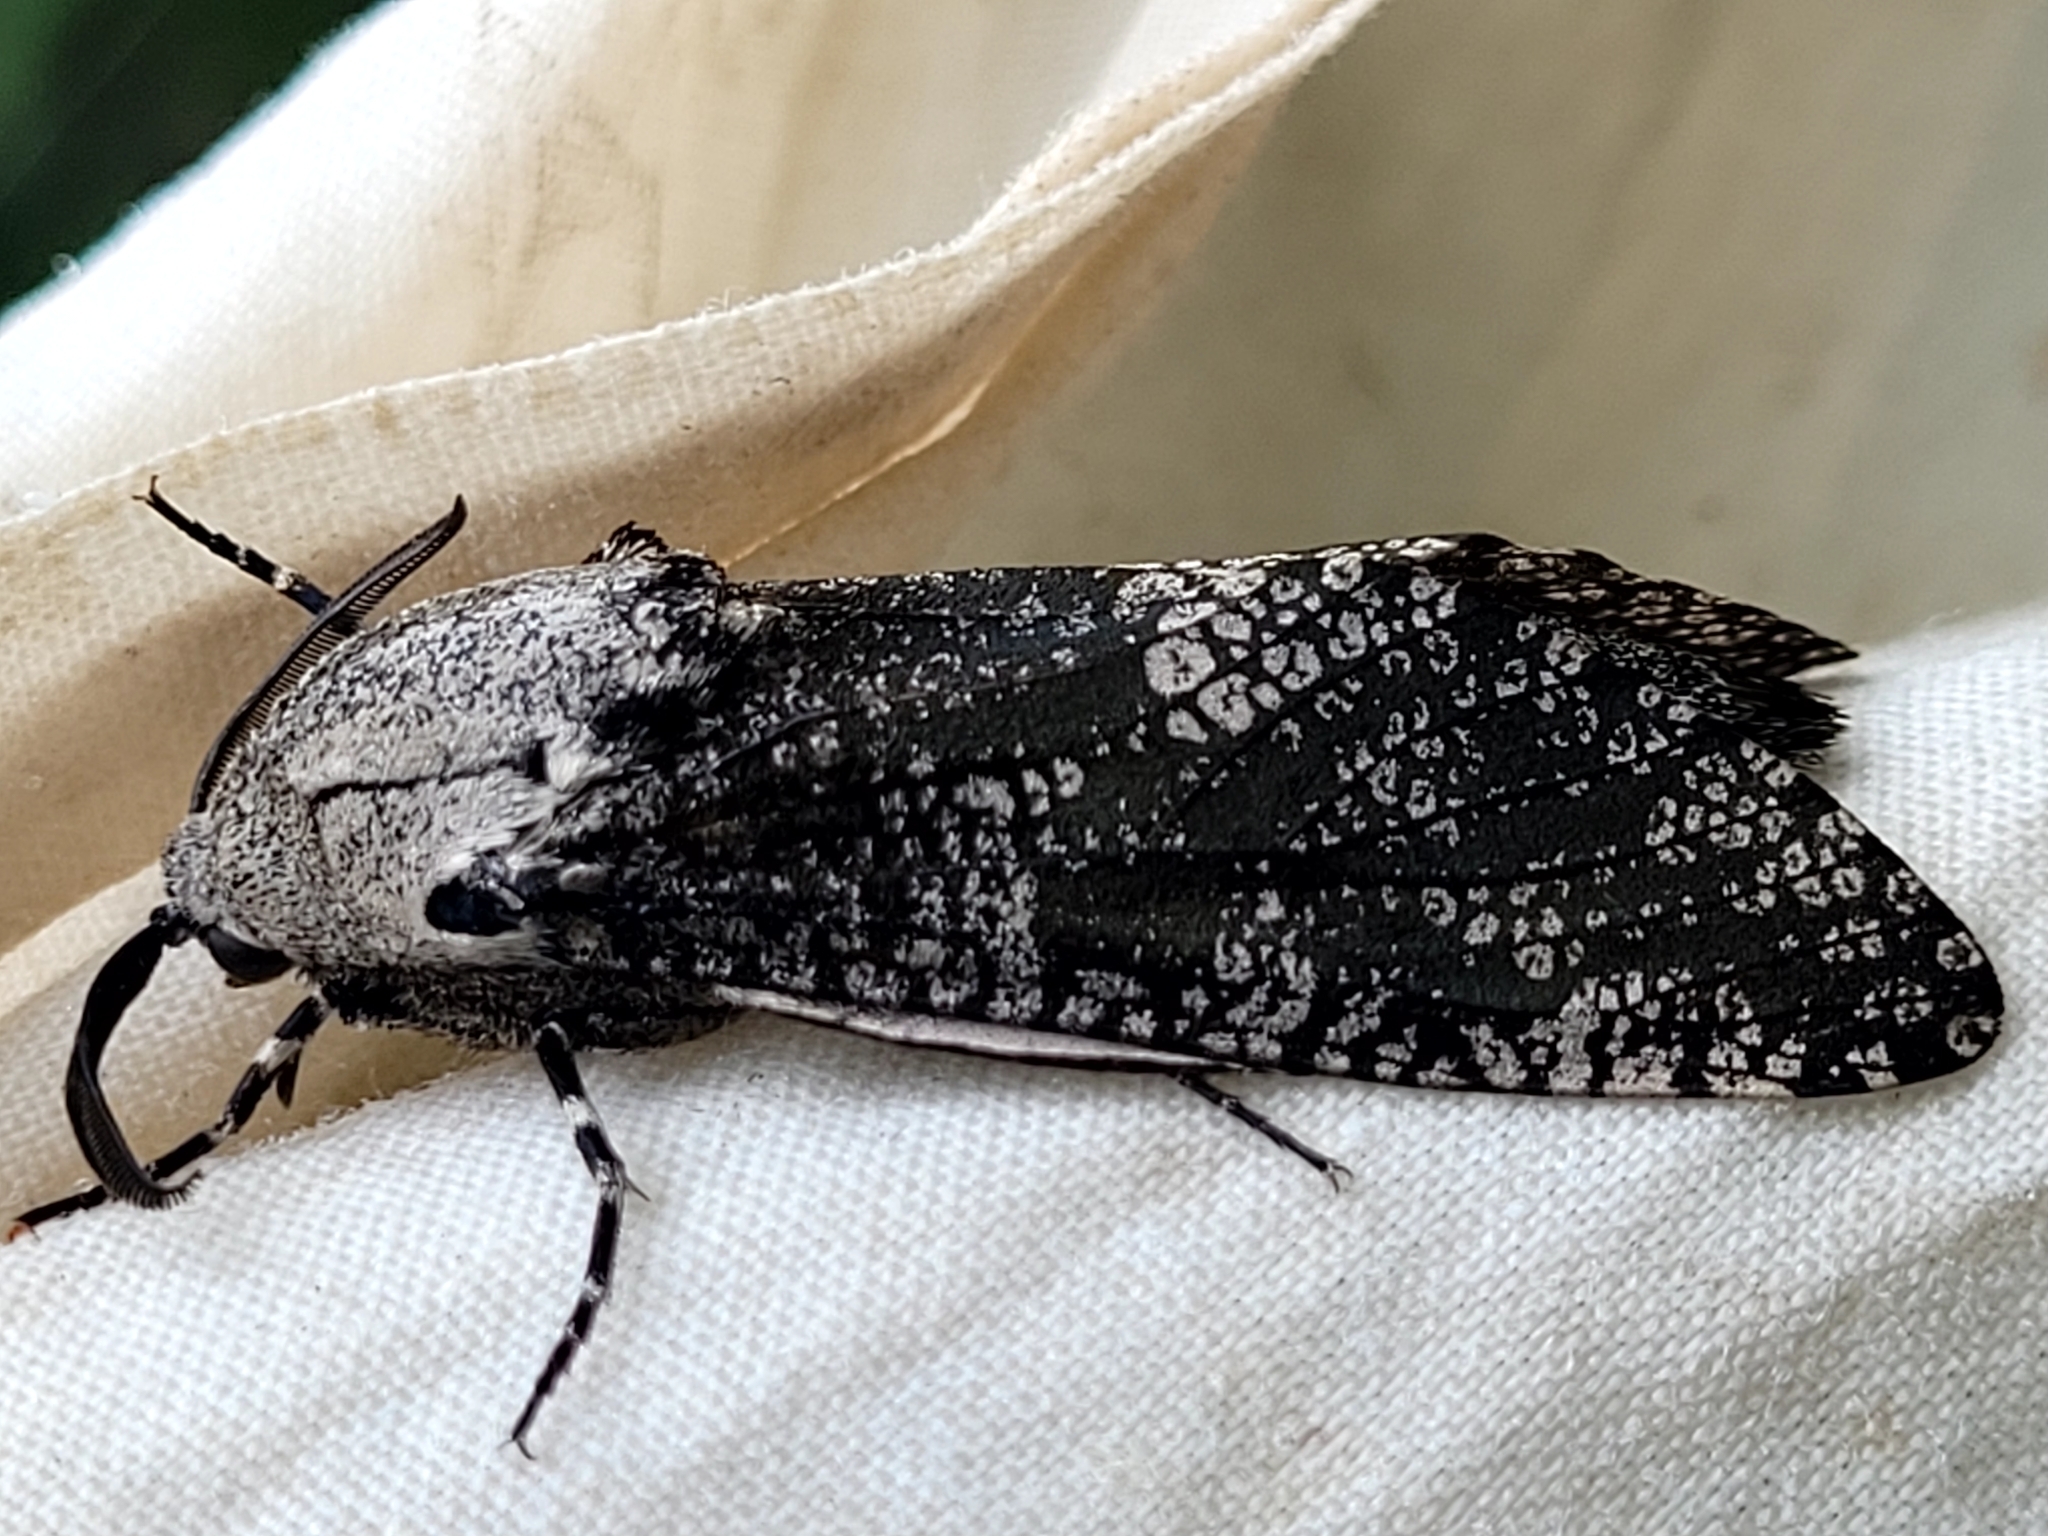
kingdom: Animalia
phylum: Arthropoda
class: Insecta
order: Lepidoptera
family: Cossidae
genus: Prionoxystus
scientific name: Prionoxystus robiniae
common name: Carpenterworm
